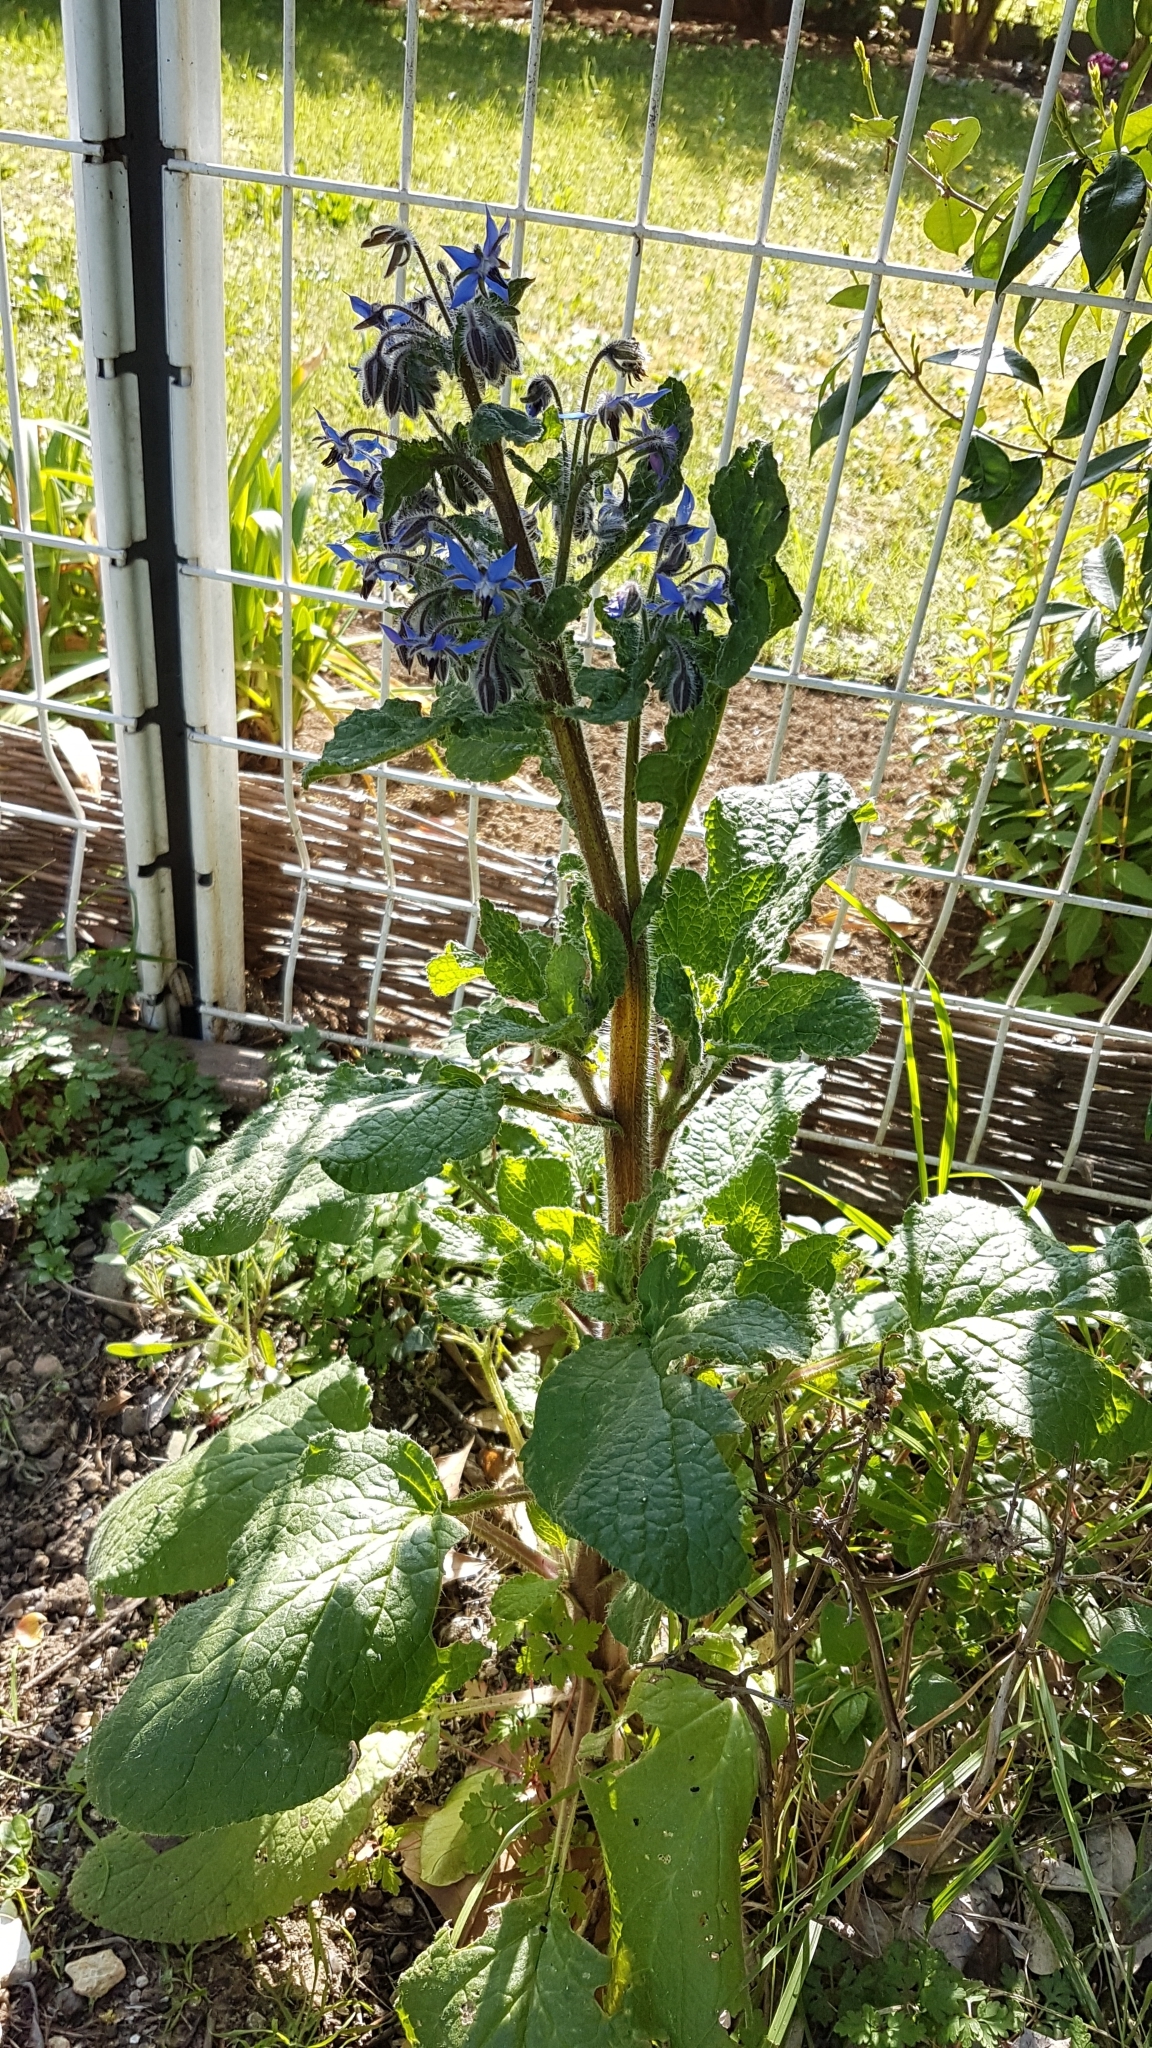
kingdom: Plantae
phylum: Tracheophyta
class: Magnoliopsida
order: Boraginales
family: Boraginaceae
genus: Borago
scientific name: Borago officinalis
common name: Borage
